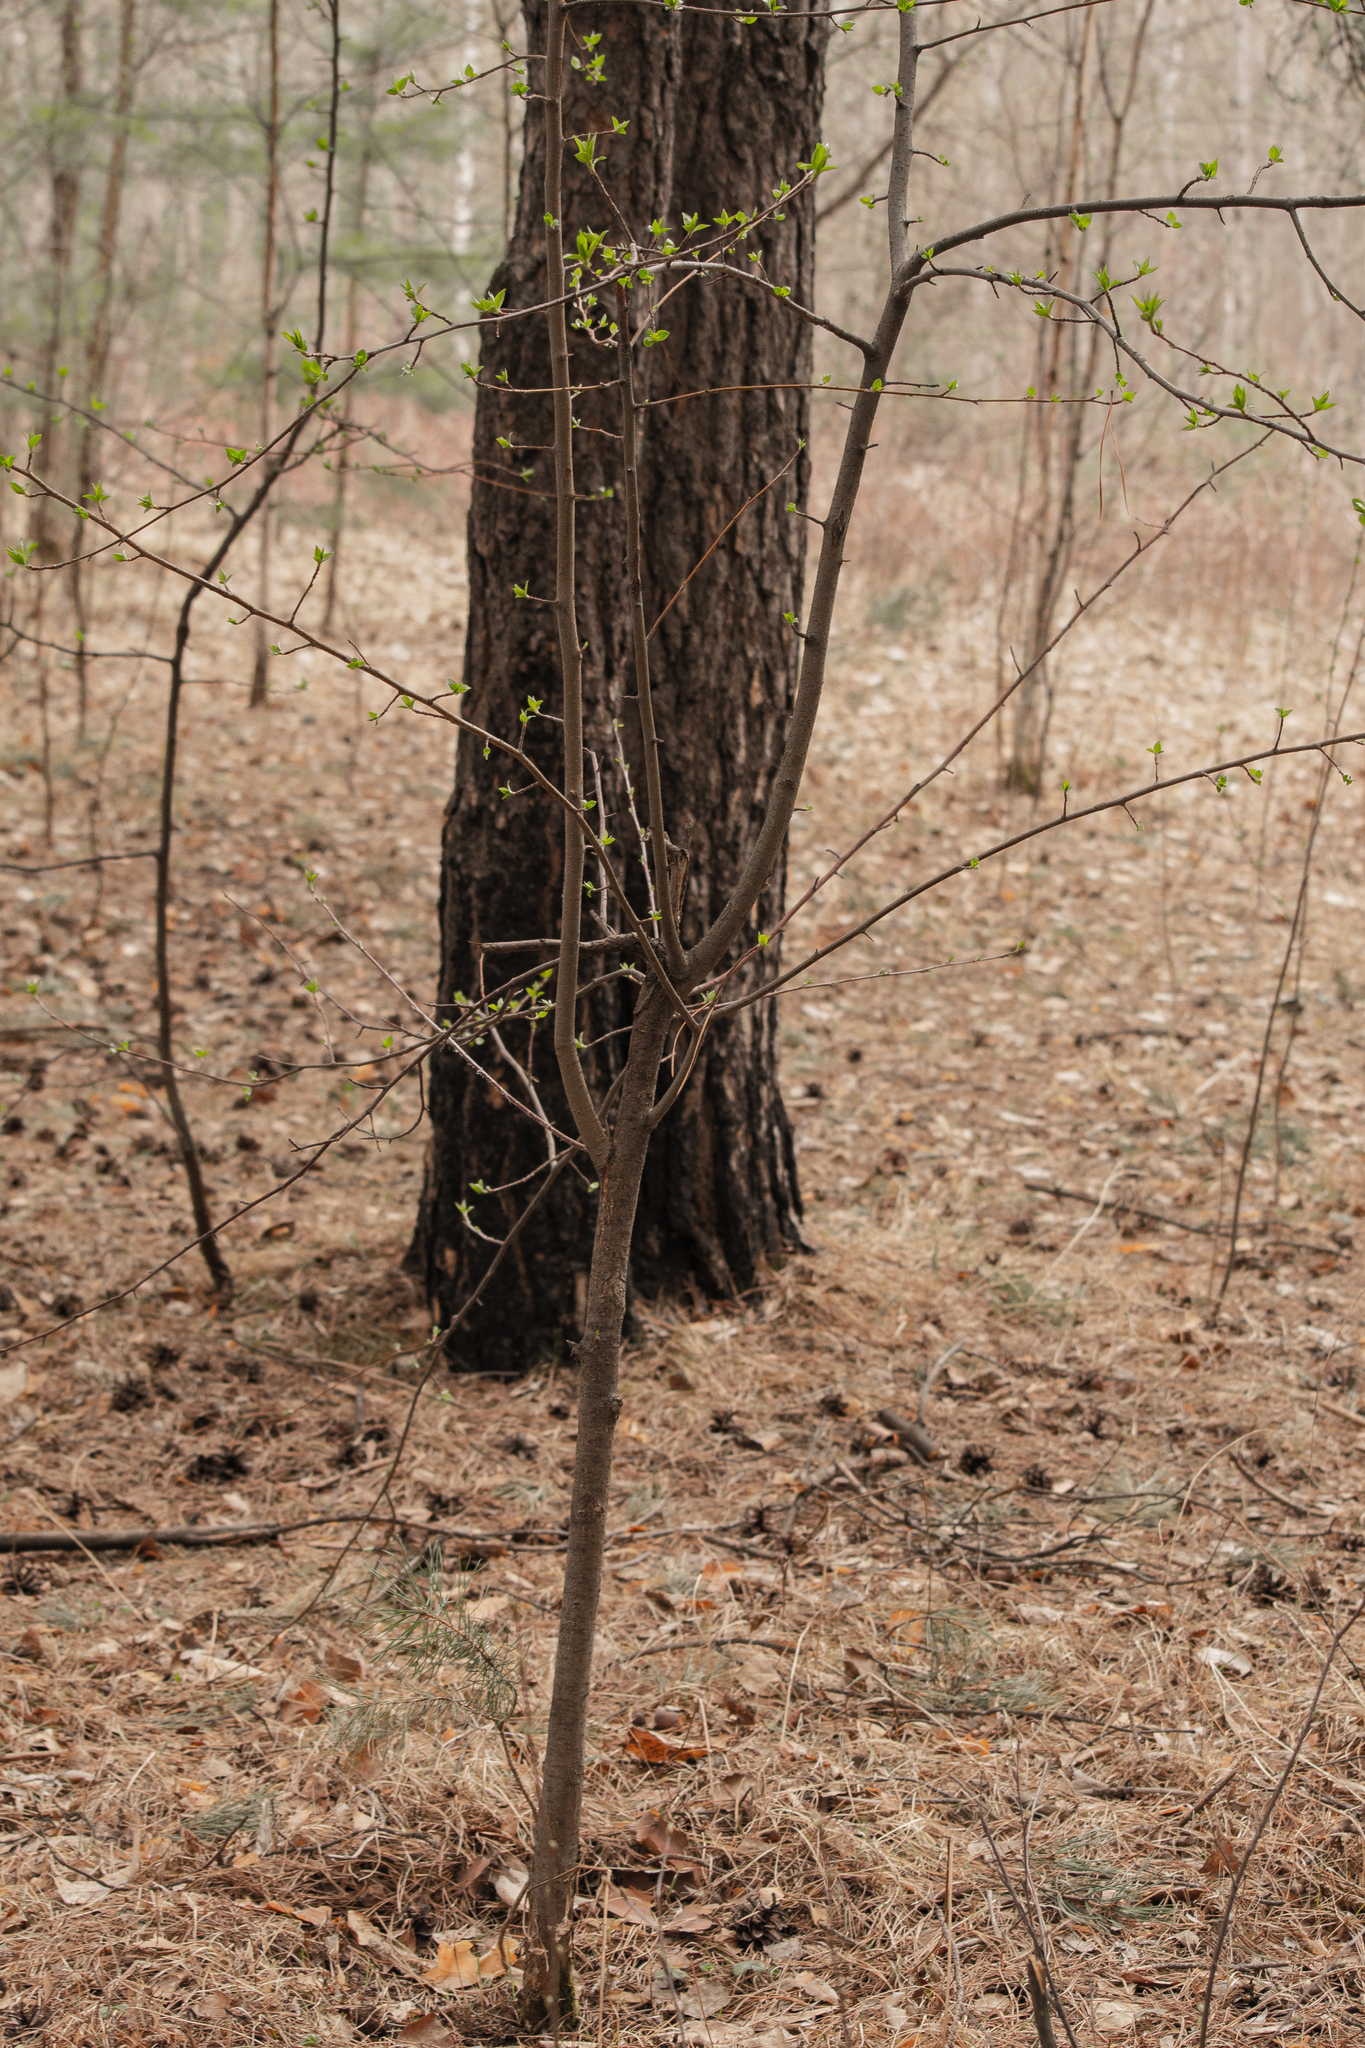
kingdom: Plantae
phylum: Tracheophyta
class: Magnoliopsida
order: Rosales
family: Rosaceae
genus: Malus
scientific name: Malus baccata
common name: Siberian crab
